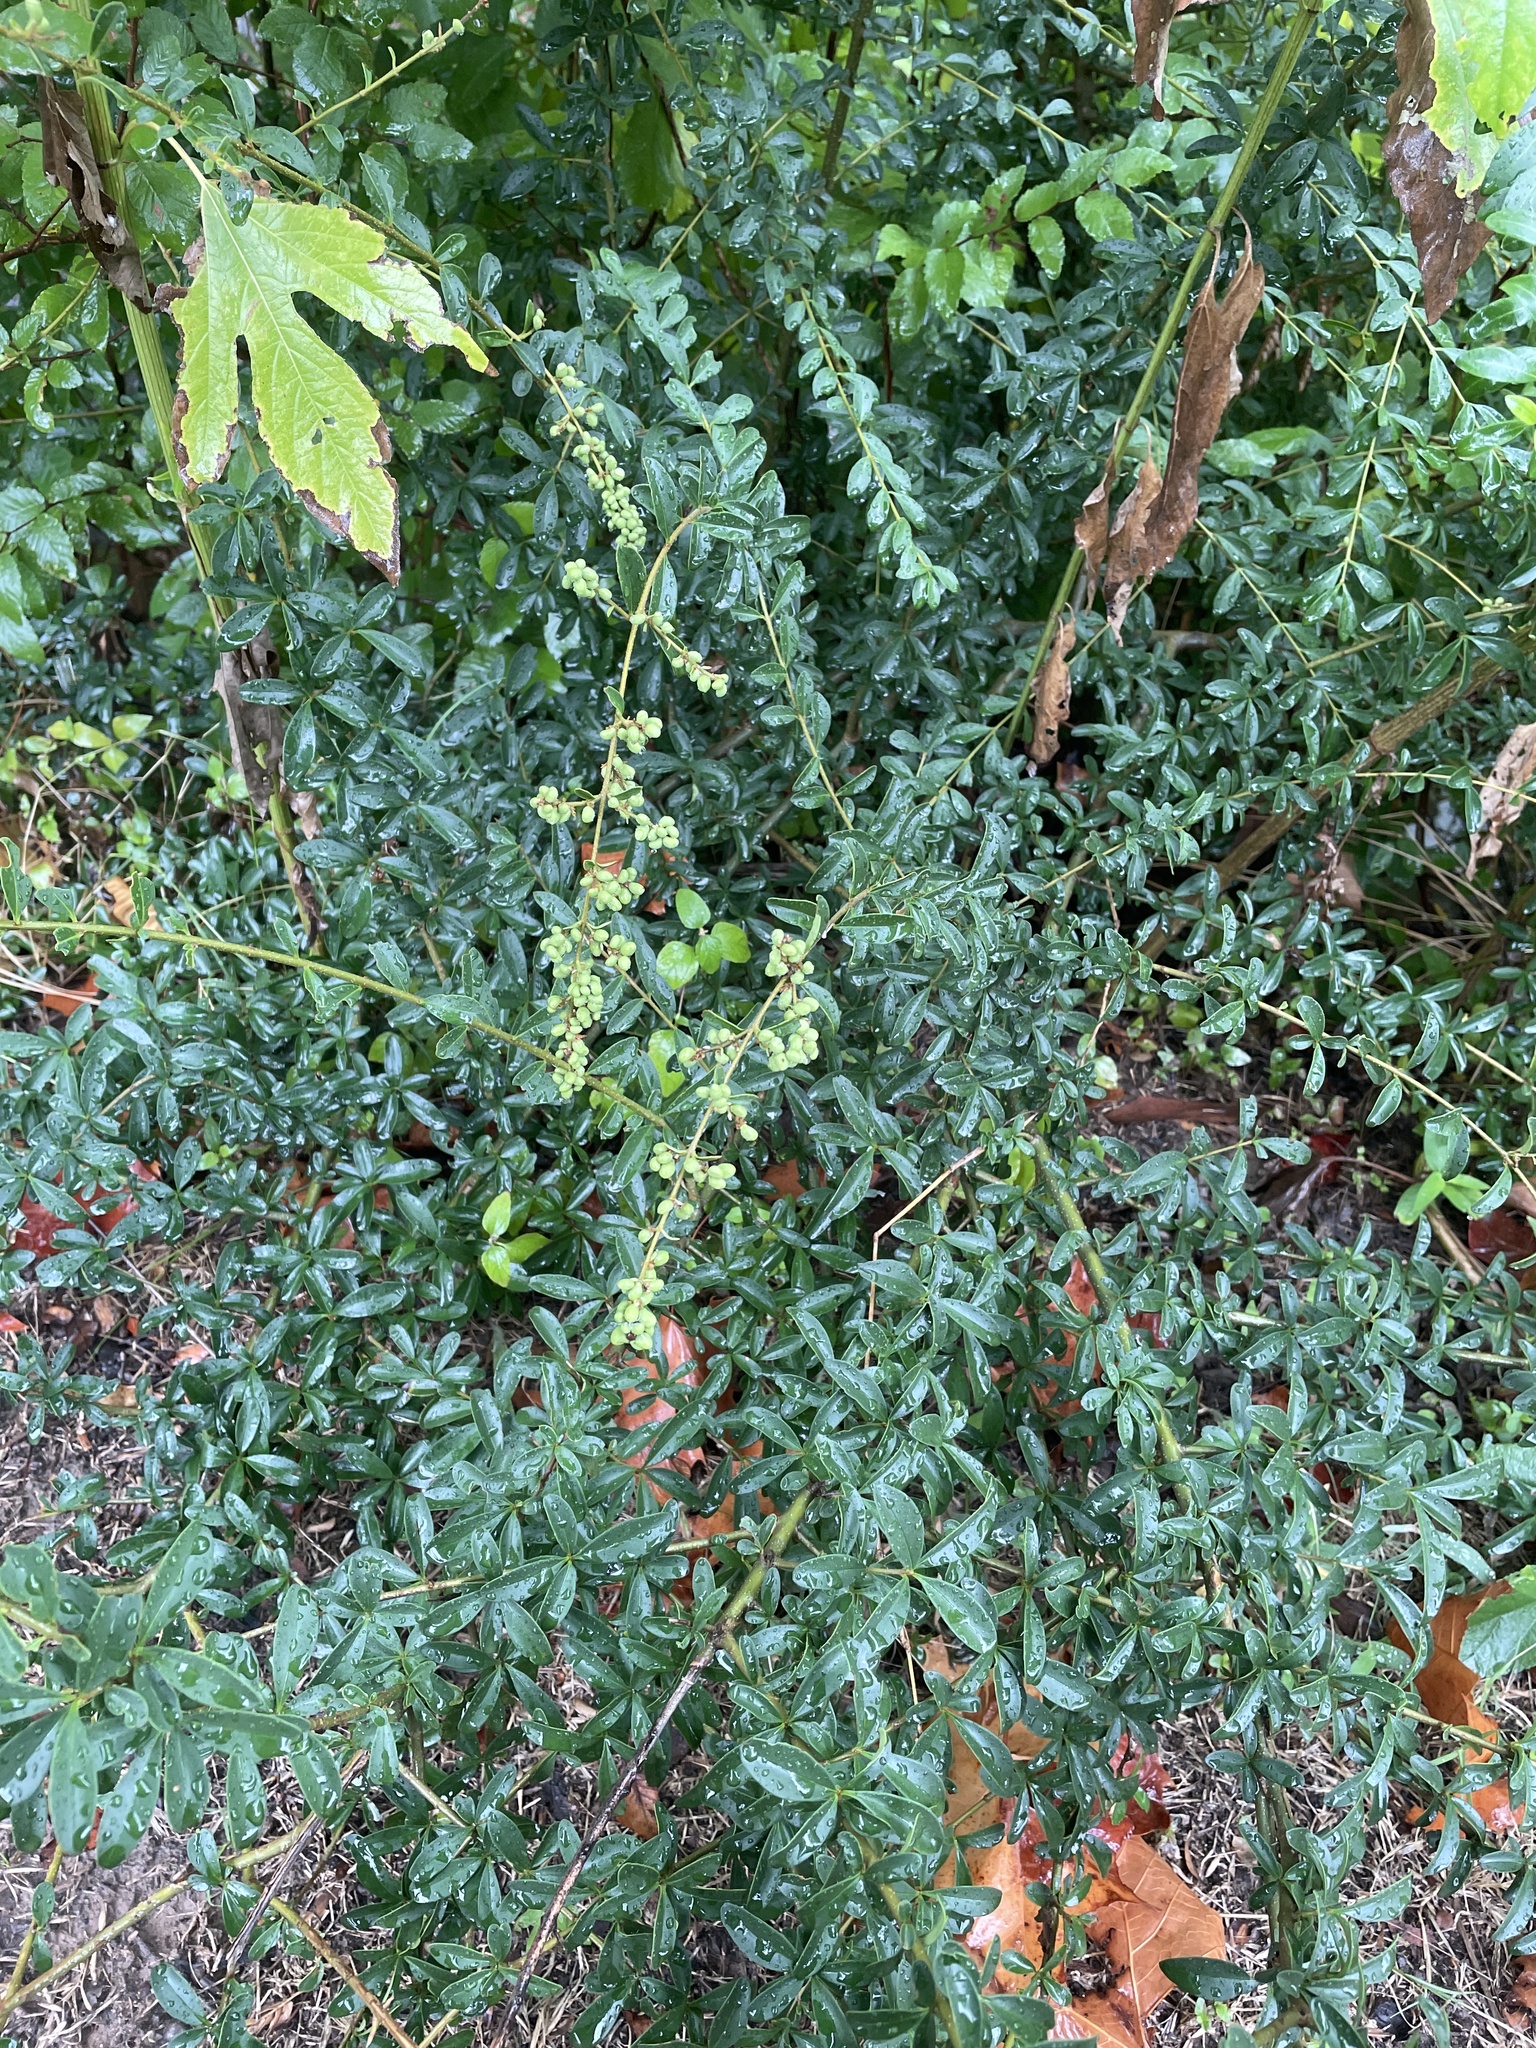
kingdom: Plantae
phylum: Tracheophyta
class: Magnoliopsida
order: Lamiales
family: Oleaceae
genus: Ligustrum
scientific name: Ligustrum quihoui
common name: Waxyleaf privet
